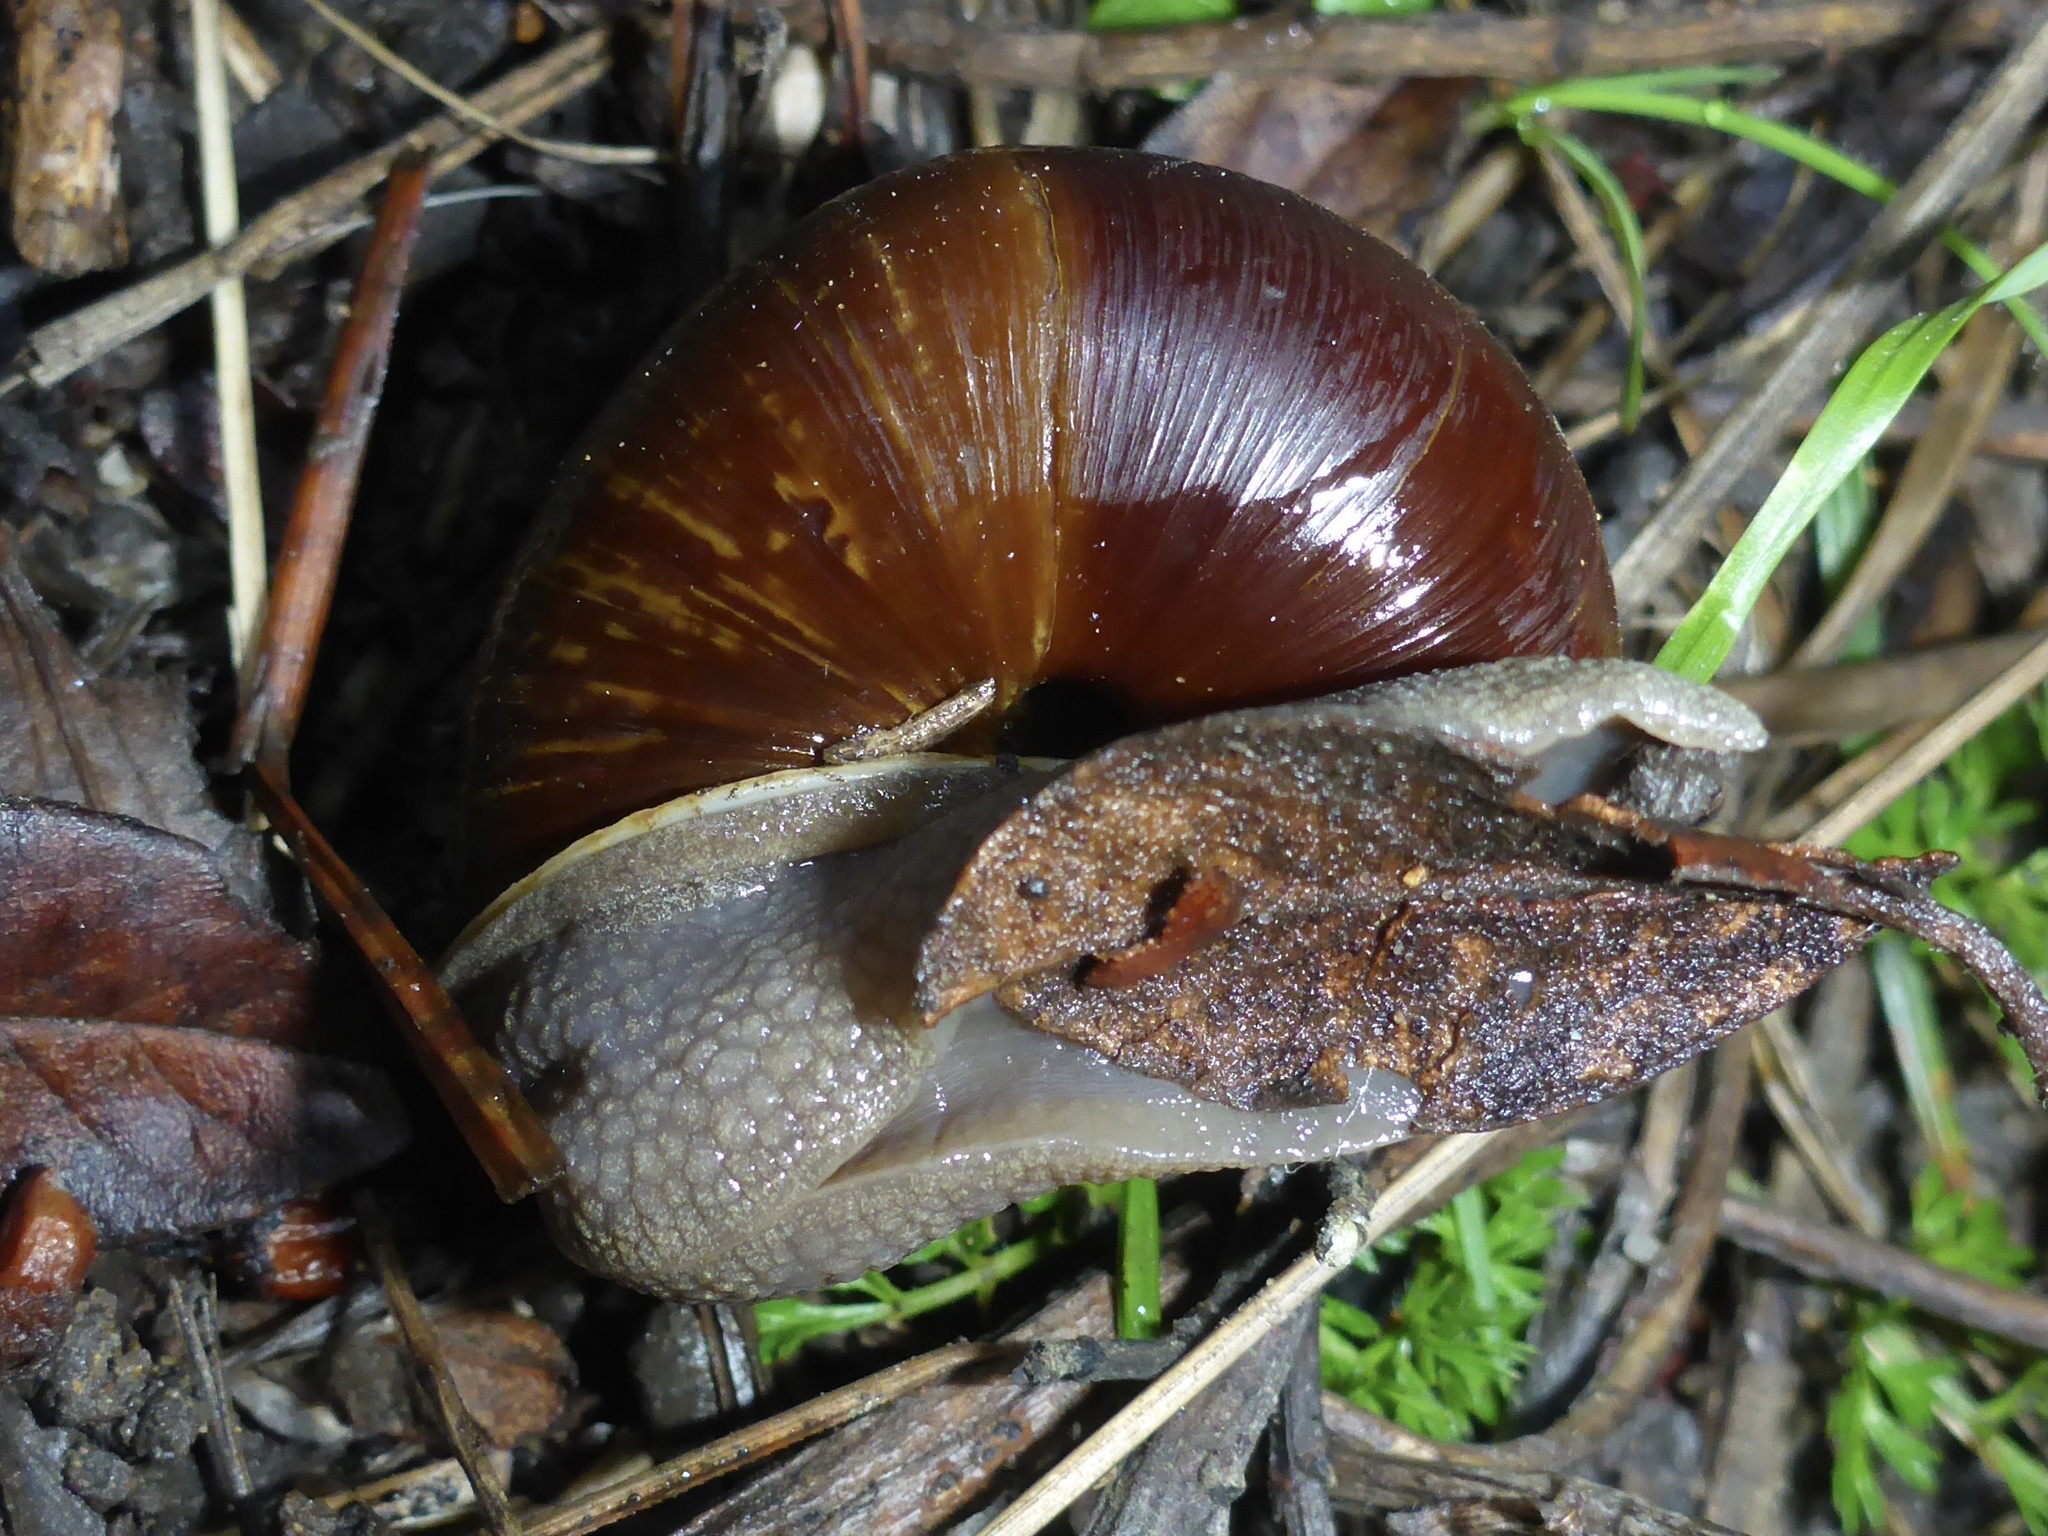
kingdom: Animalia
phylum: Mollusca
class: Gastropoda
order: Stylommatophora
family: Xanthonychidae
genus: Helminthoglypta
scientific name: Helminthoglypta arrosa
